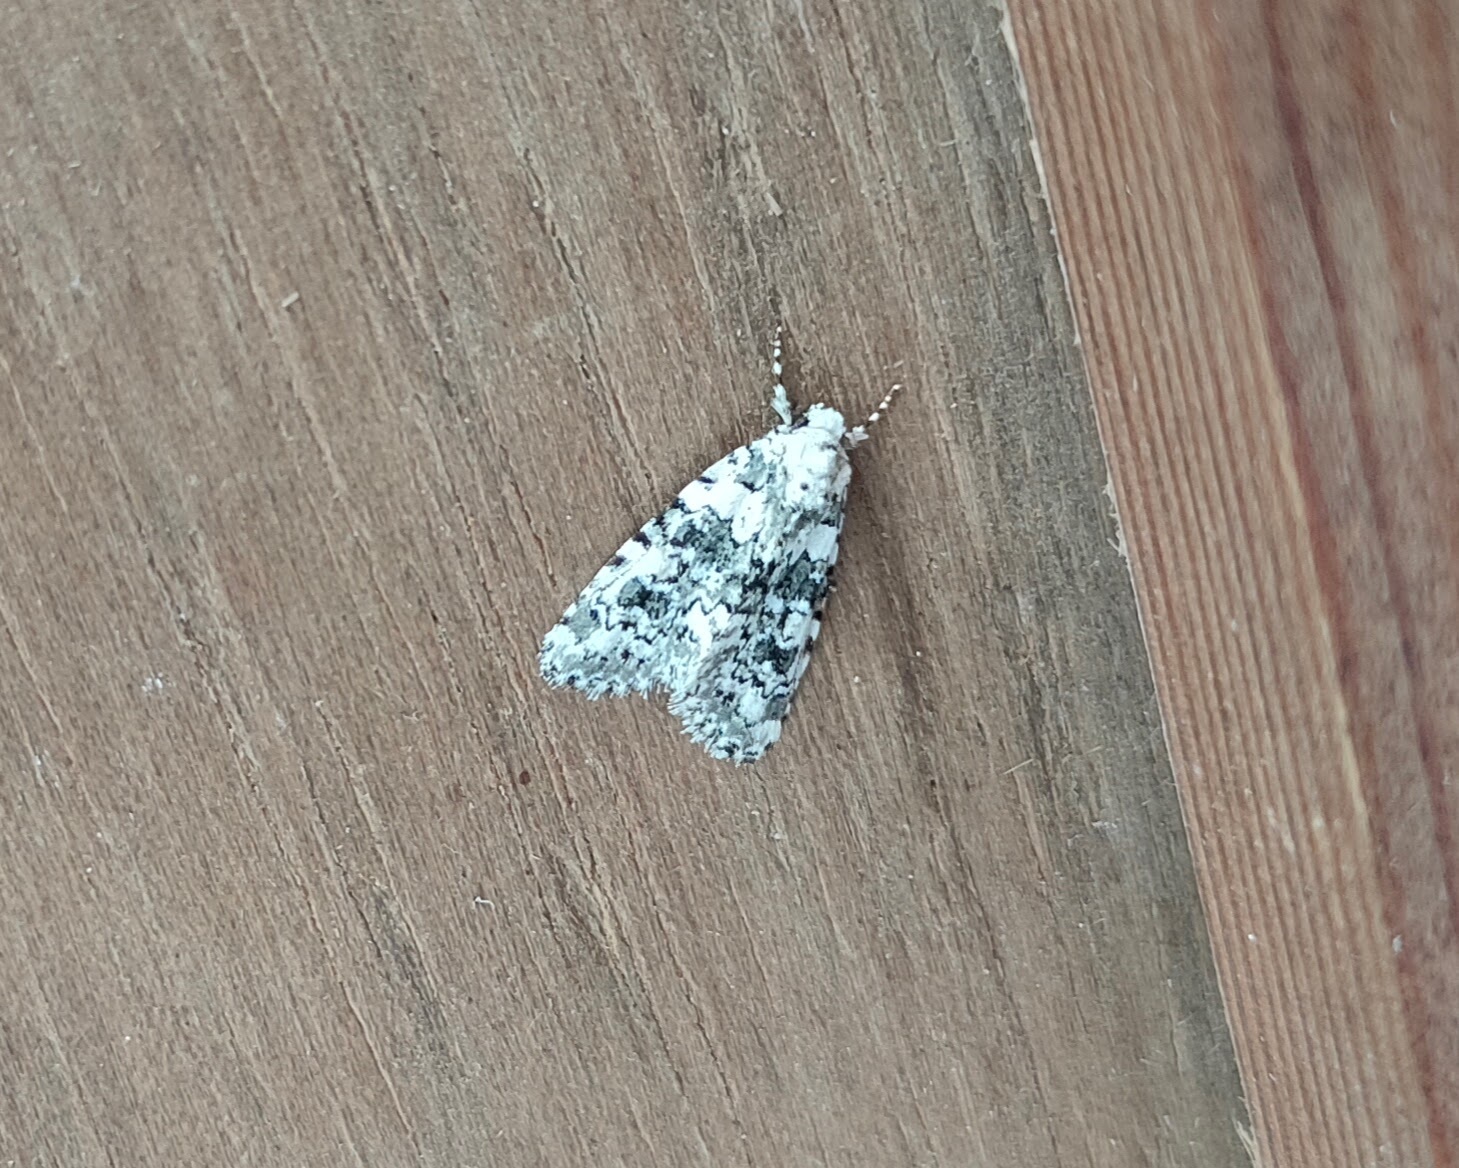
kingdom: Animalia
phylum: Arthropoda
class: Insecta
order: Lepidoptera
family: Noctuidae
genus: Bryophila
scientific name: Bryophila domestica
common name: Marbled beauty
